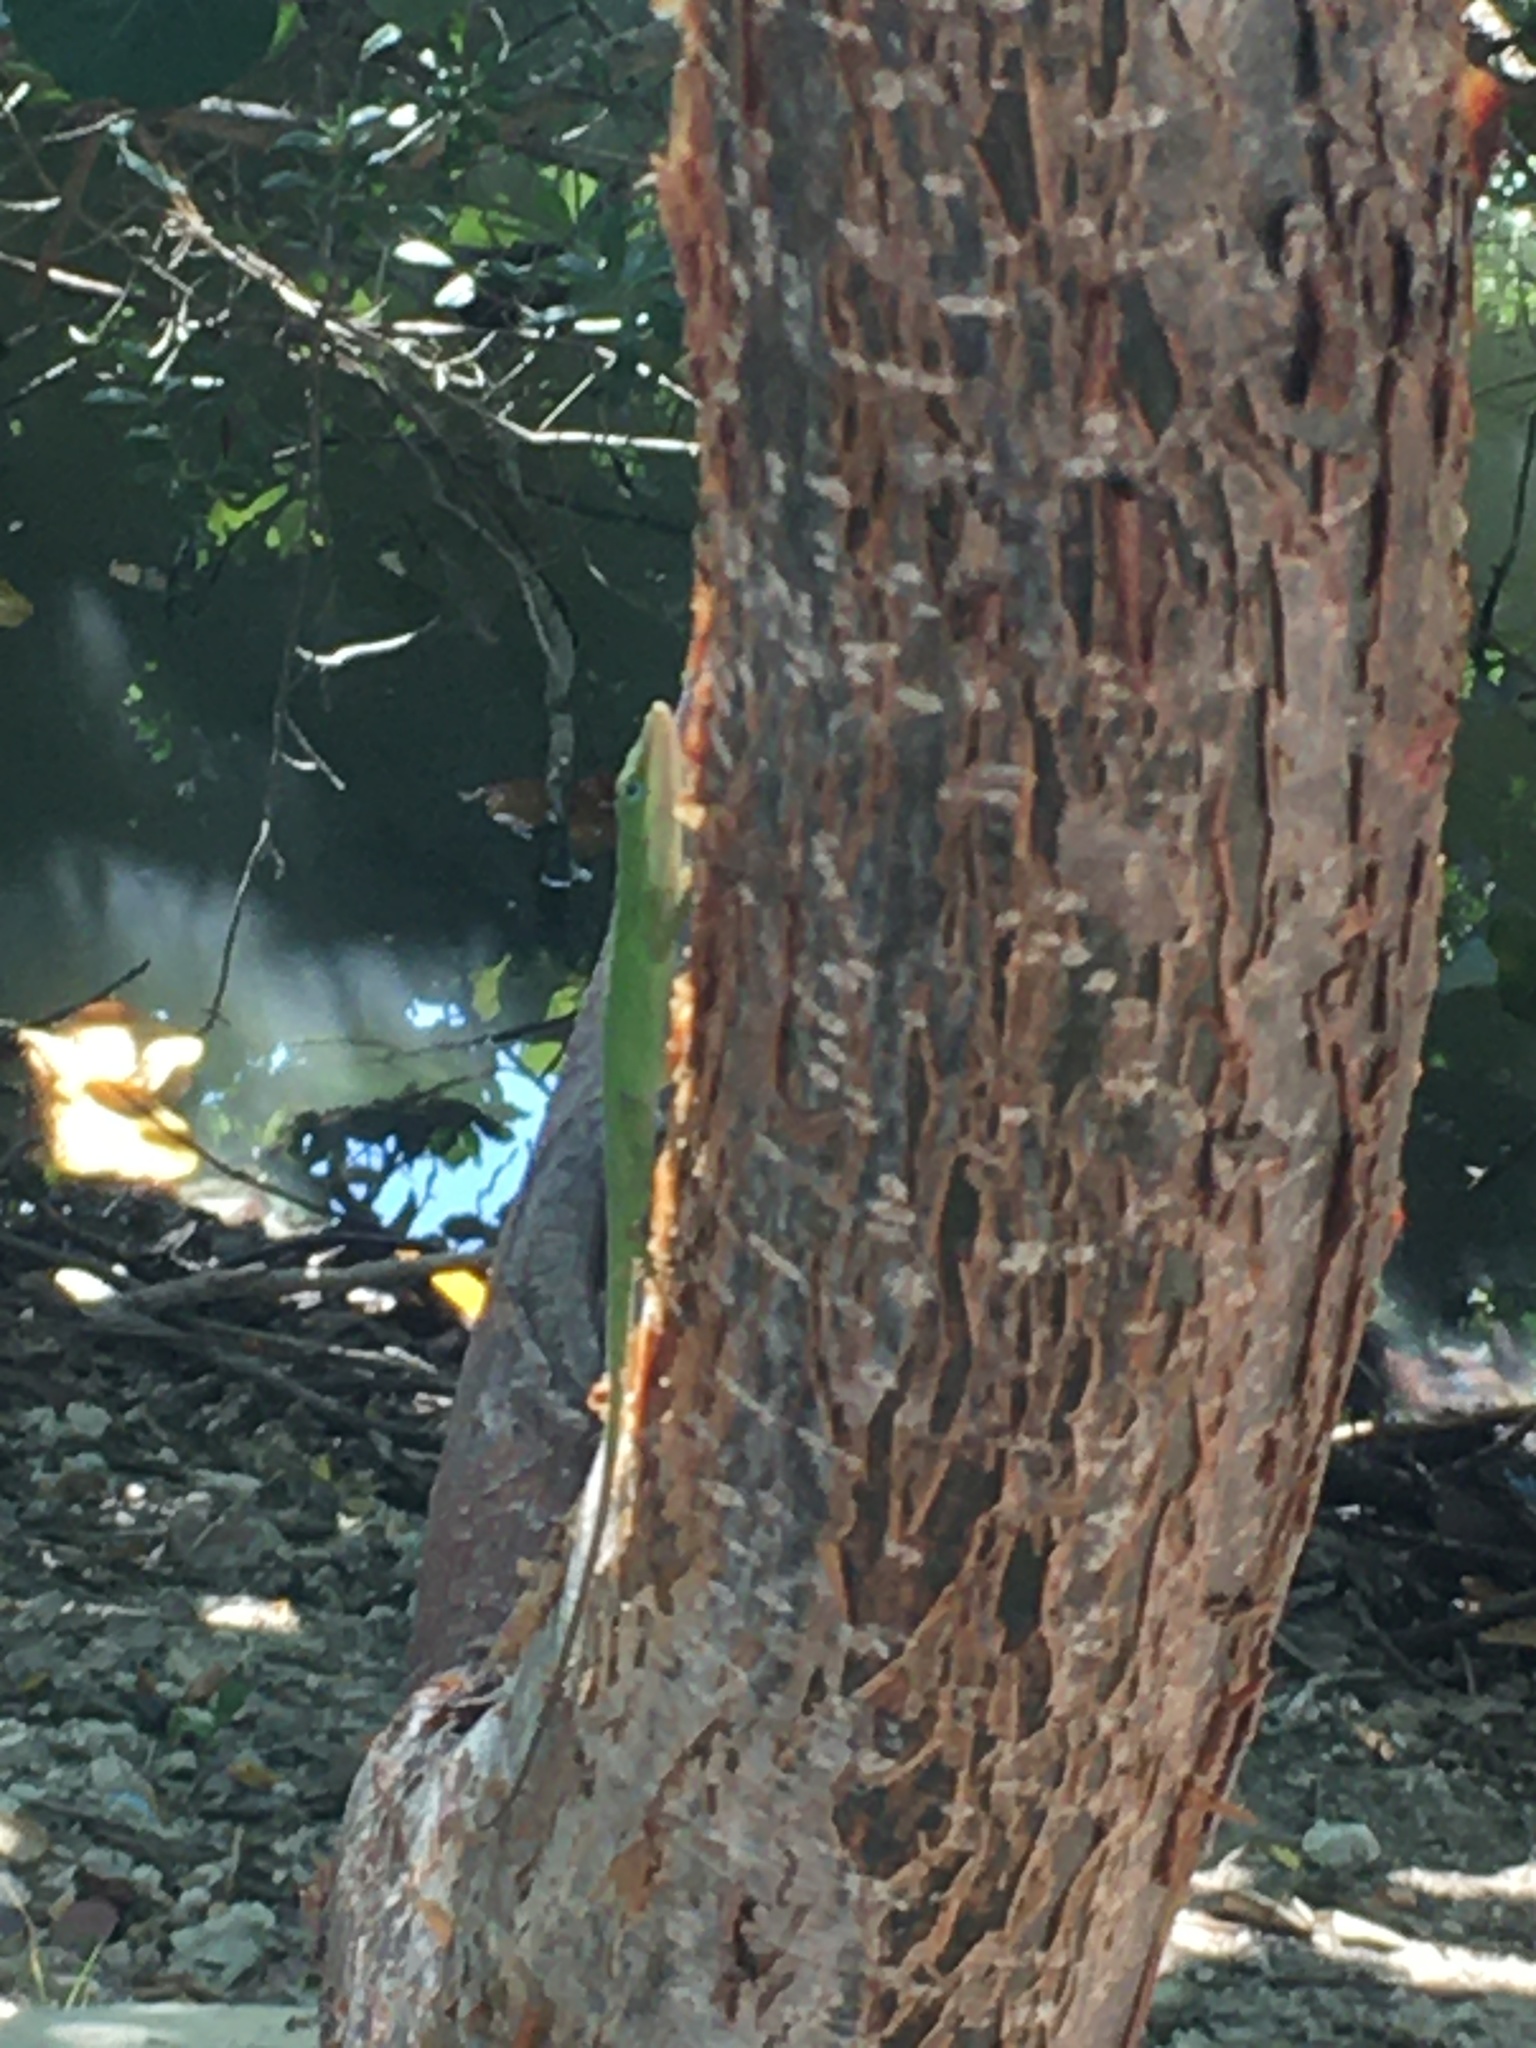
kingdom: Animalia
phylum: Chordata
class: Squamata
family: Dactyloidae
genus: Anolis
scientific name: Anolis carolinensis
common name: Green anole
